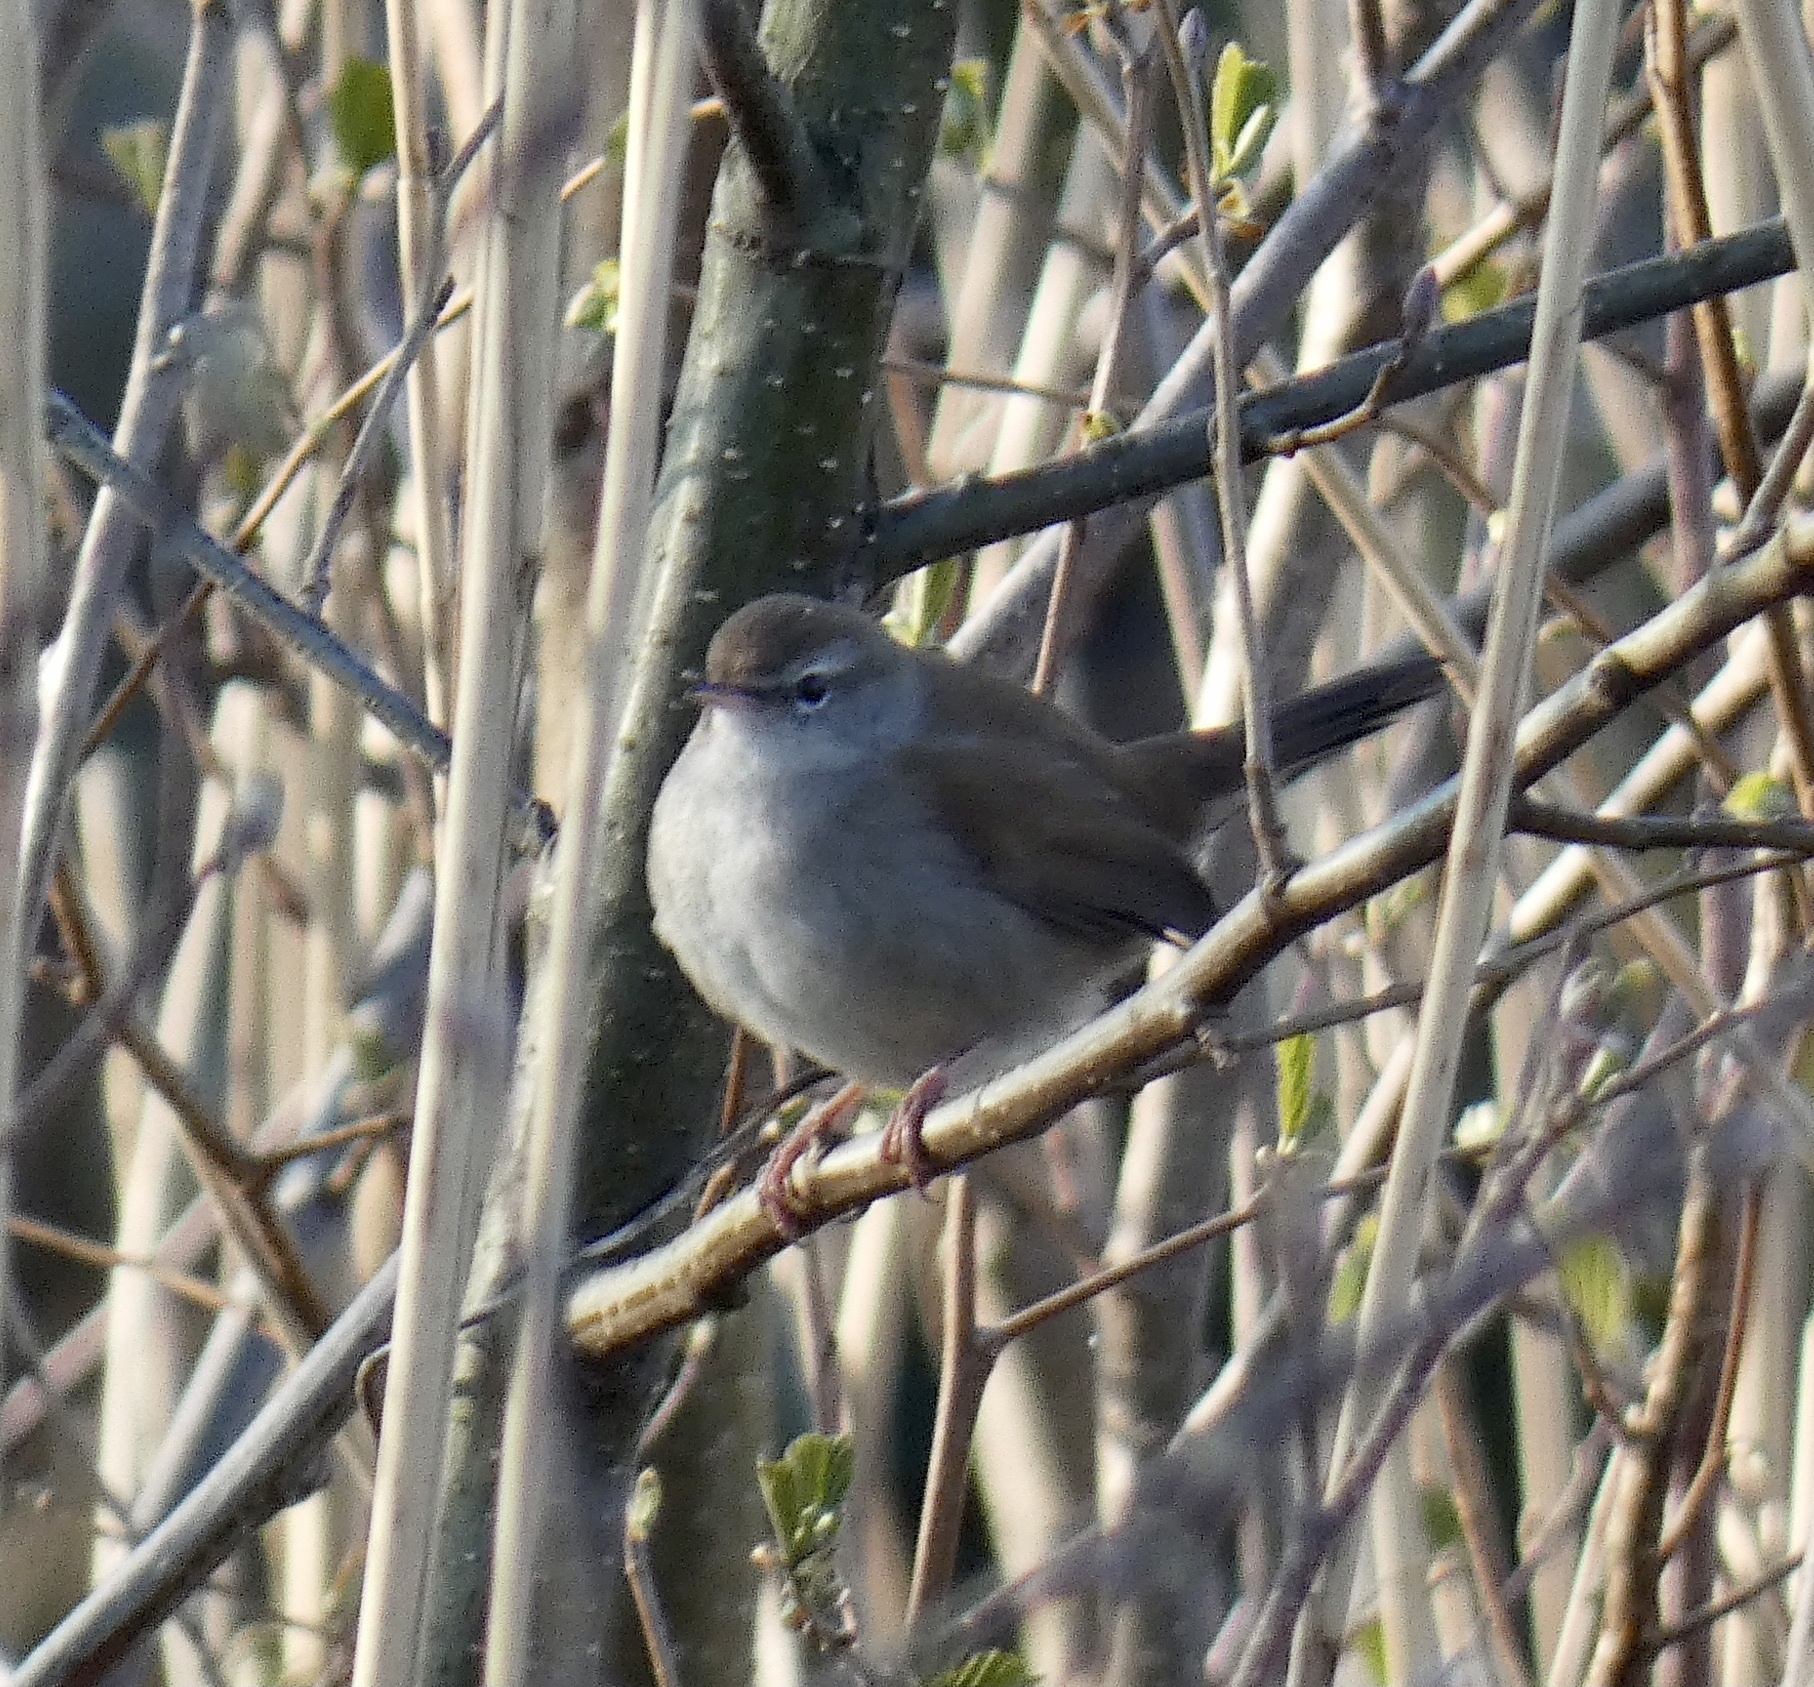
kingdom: Animalia
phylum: Chordata
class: Aves
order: Passeriformes
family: Cettiidae
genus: Cettia
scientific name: Cettia cetti
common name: Cetti's warbler
